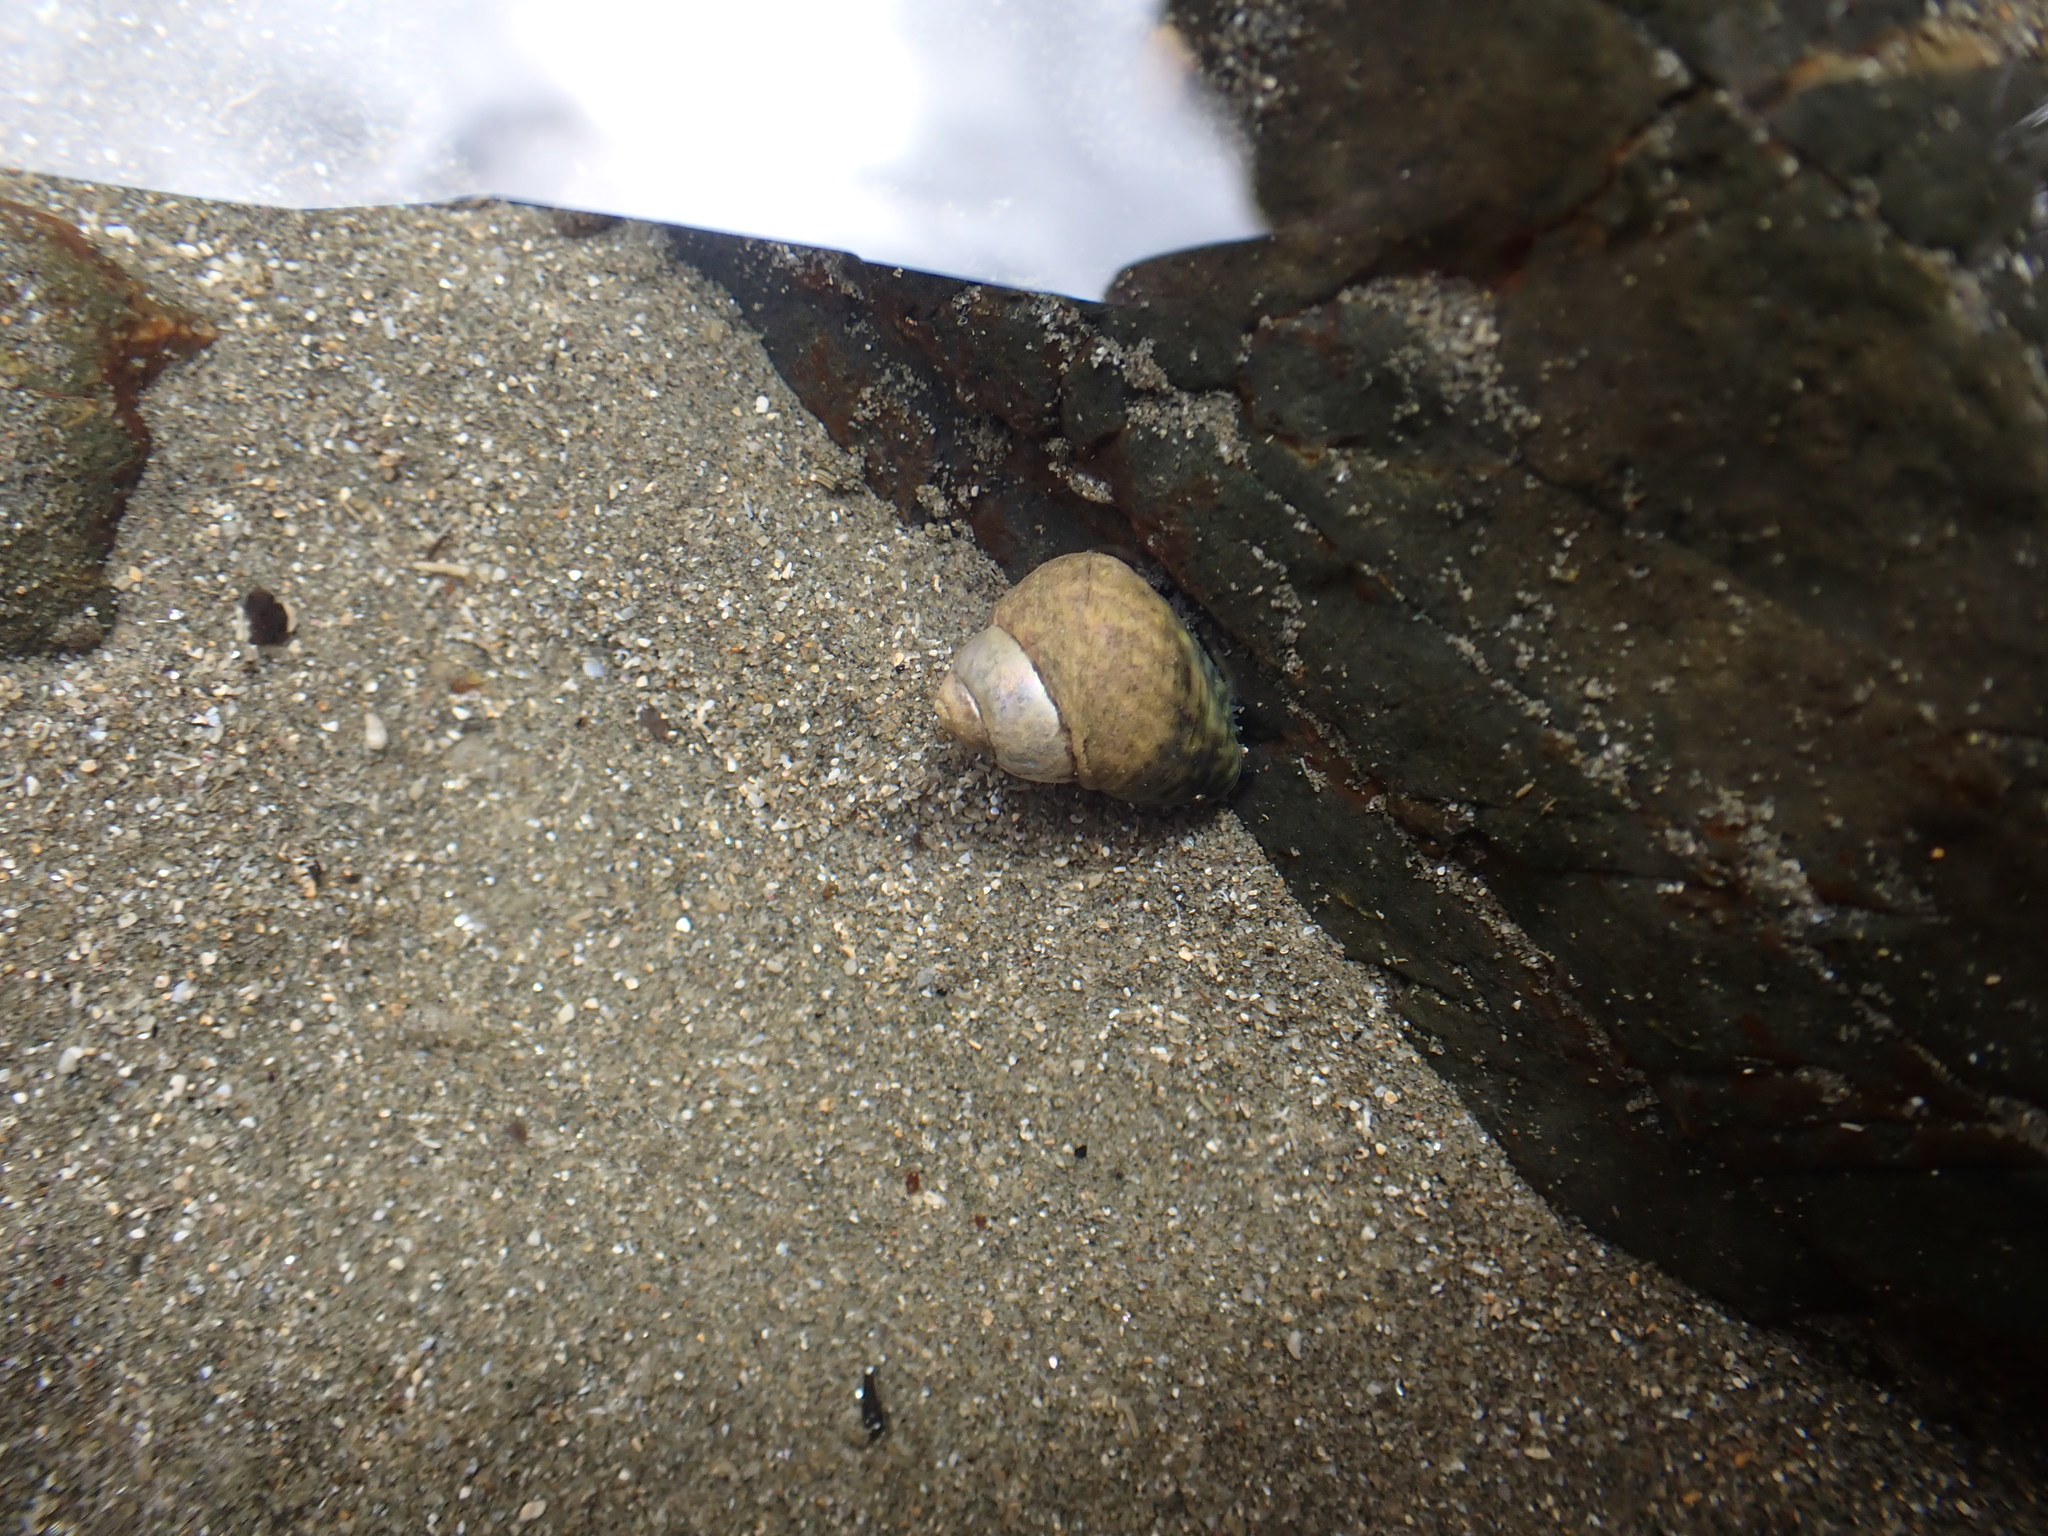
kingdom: Animalia
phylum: Mollusca
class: Gastropoda
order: Trochida
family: Trochidae
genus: Diloma
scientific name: Diloma coracinum
